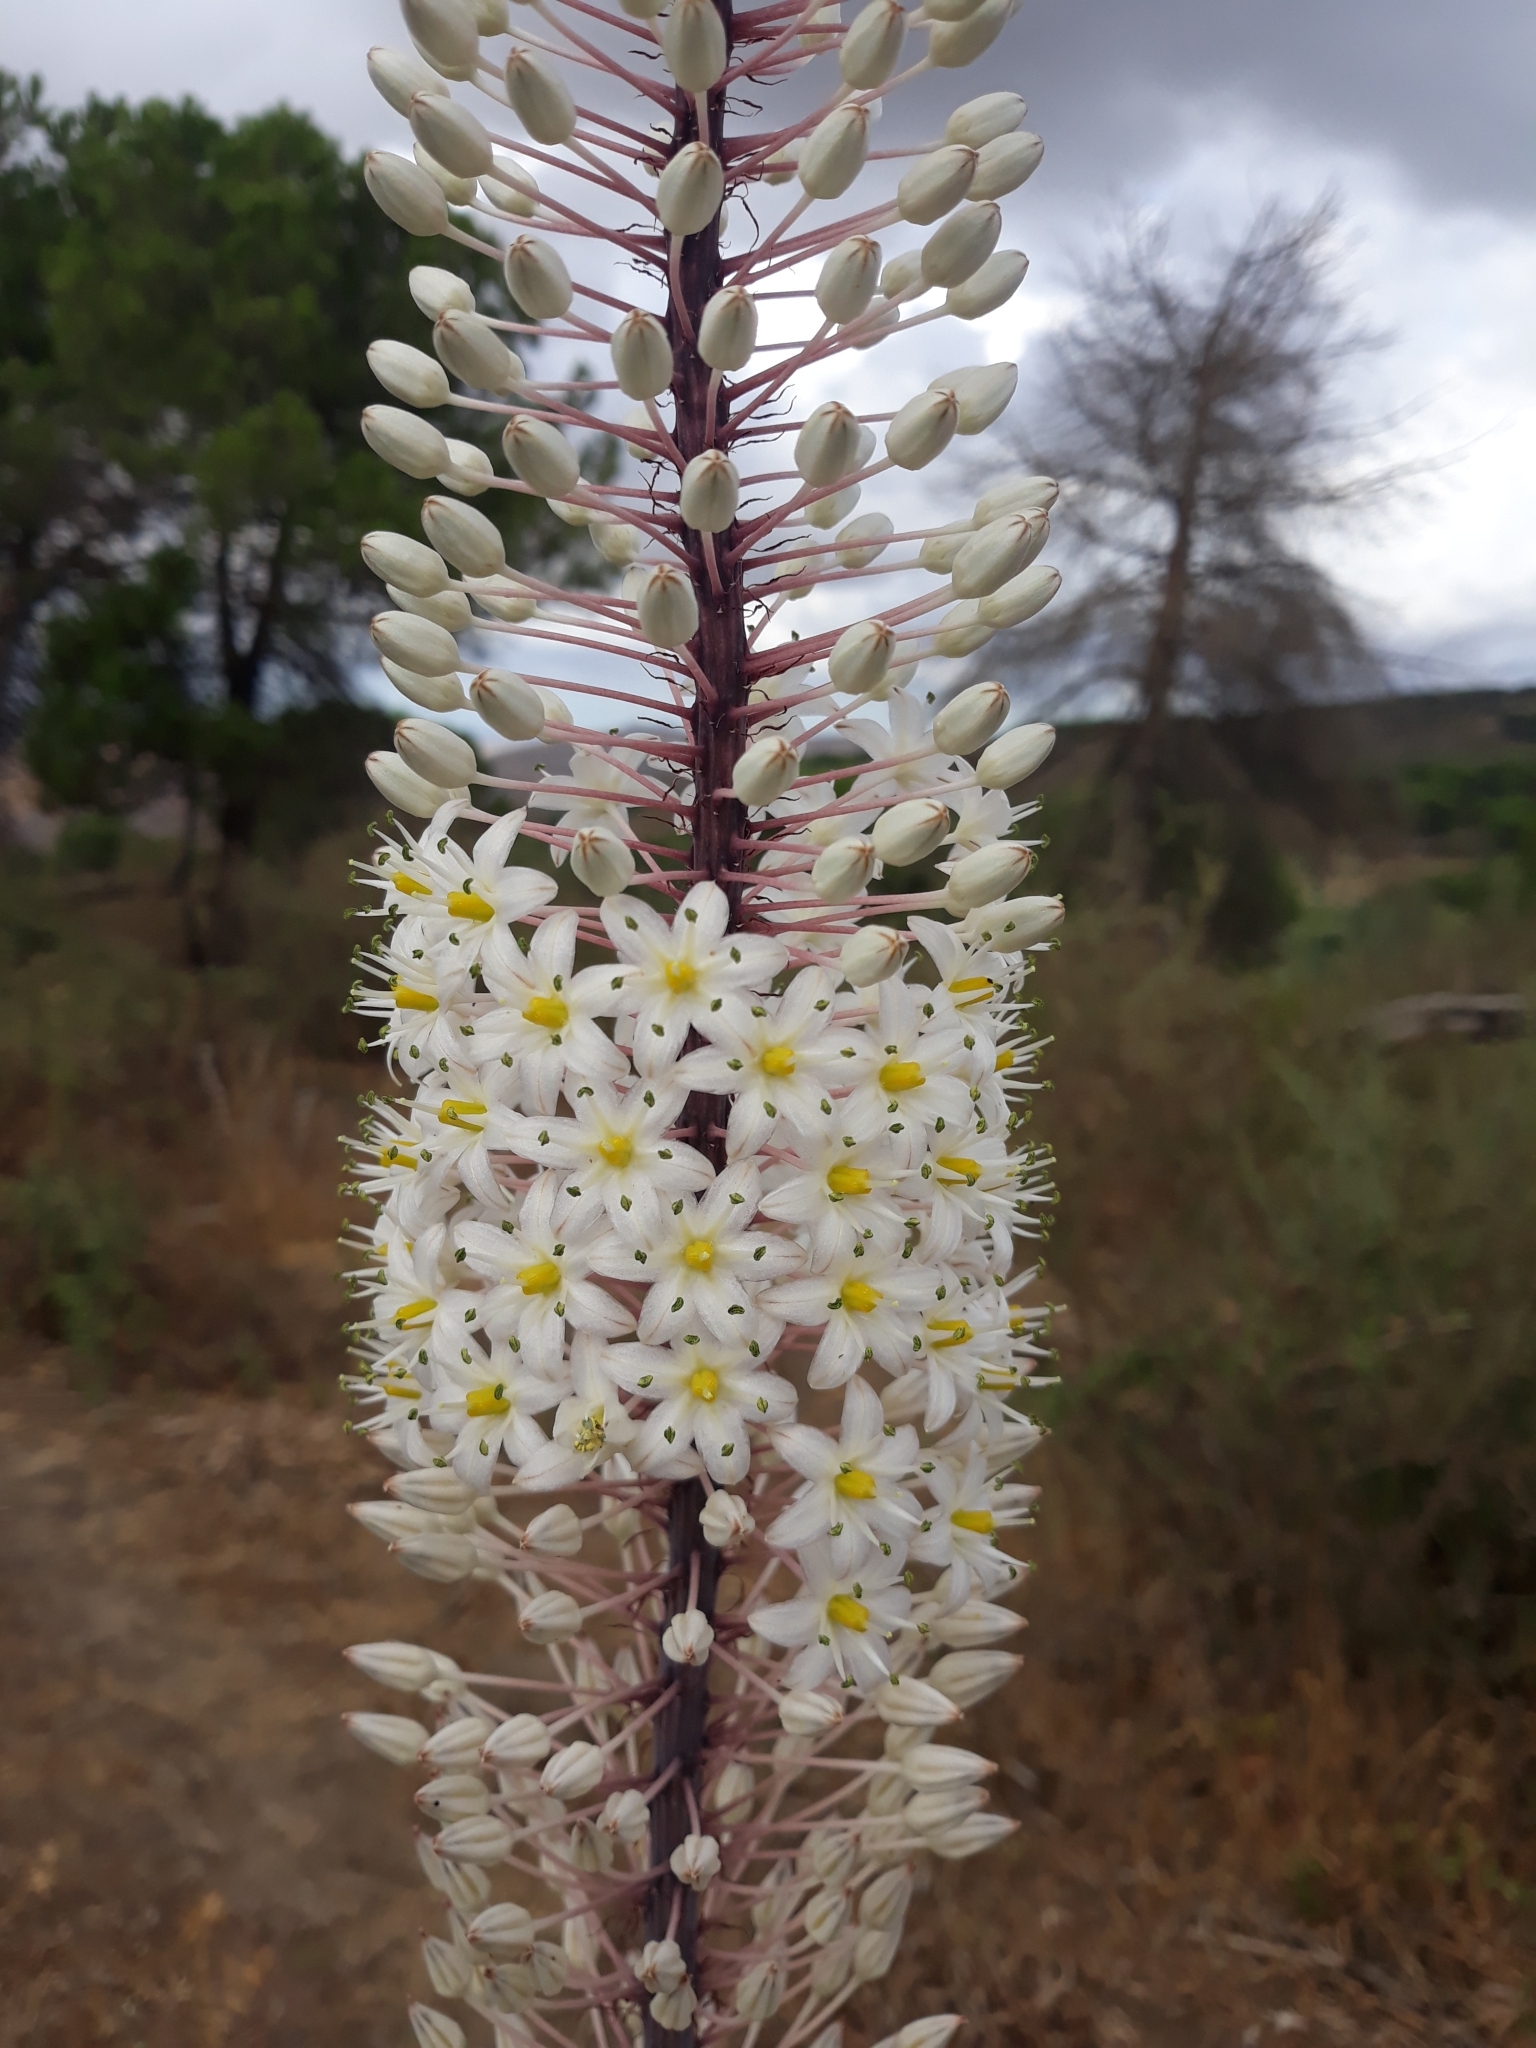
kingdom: Plantae
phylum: Tracheophyta
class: Liliopsida
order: Asparagales
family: Asparagaceae
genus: Drimia
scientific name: Drimia numidica
